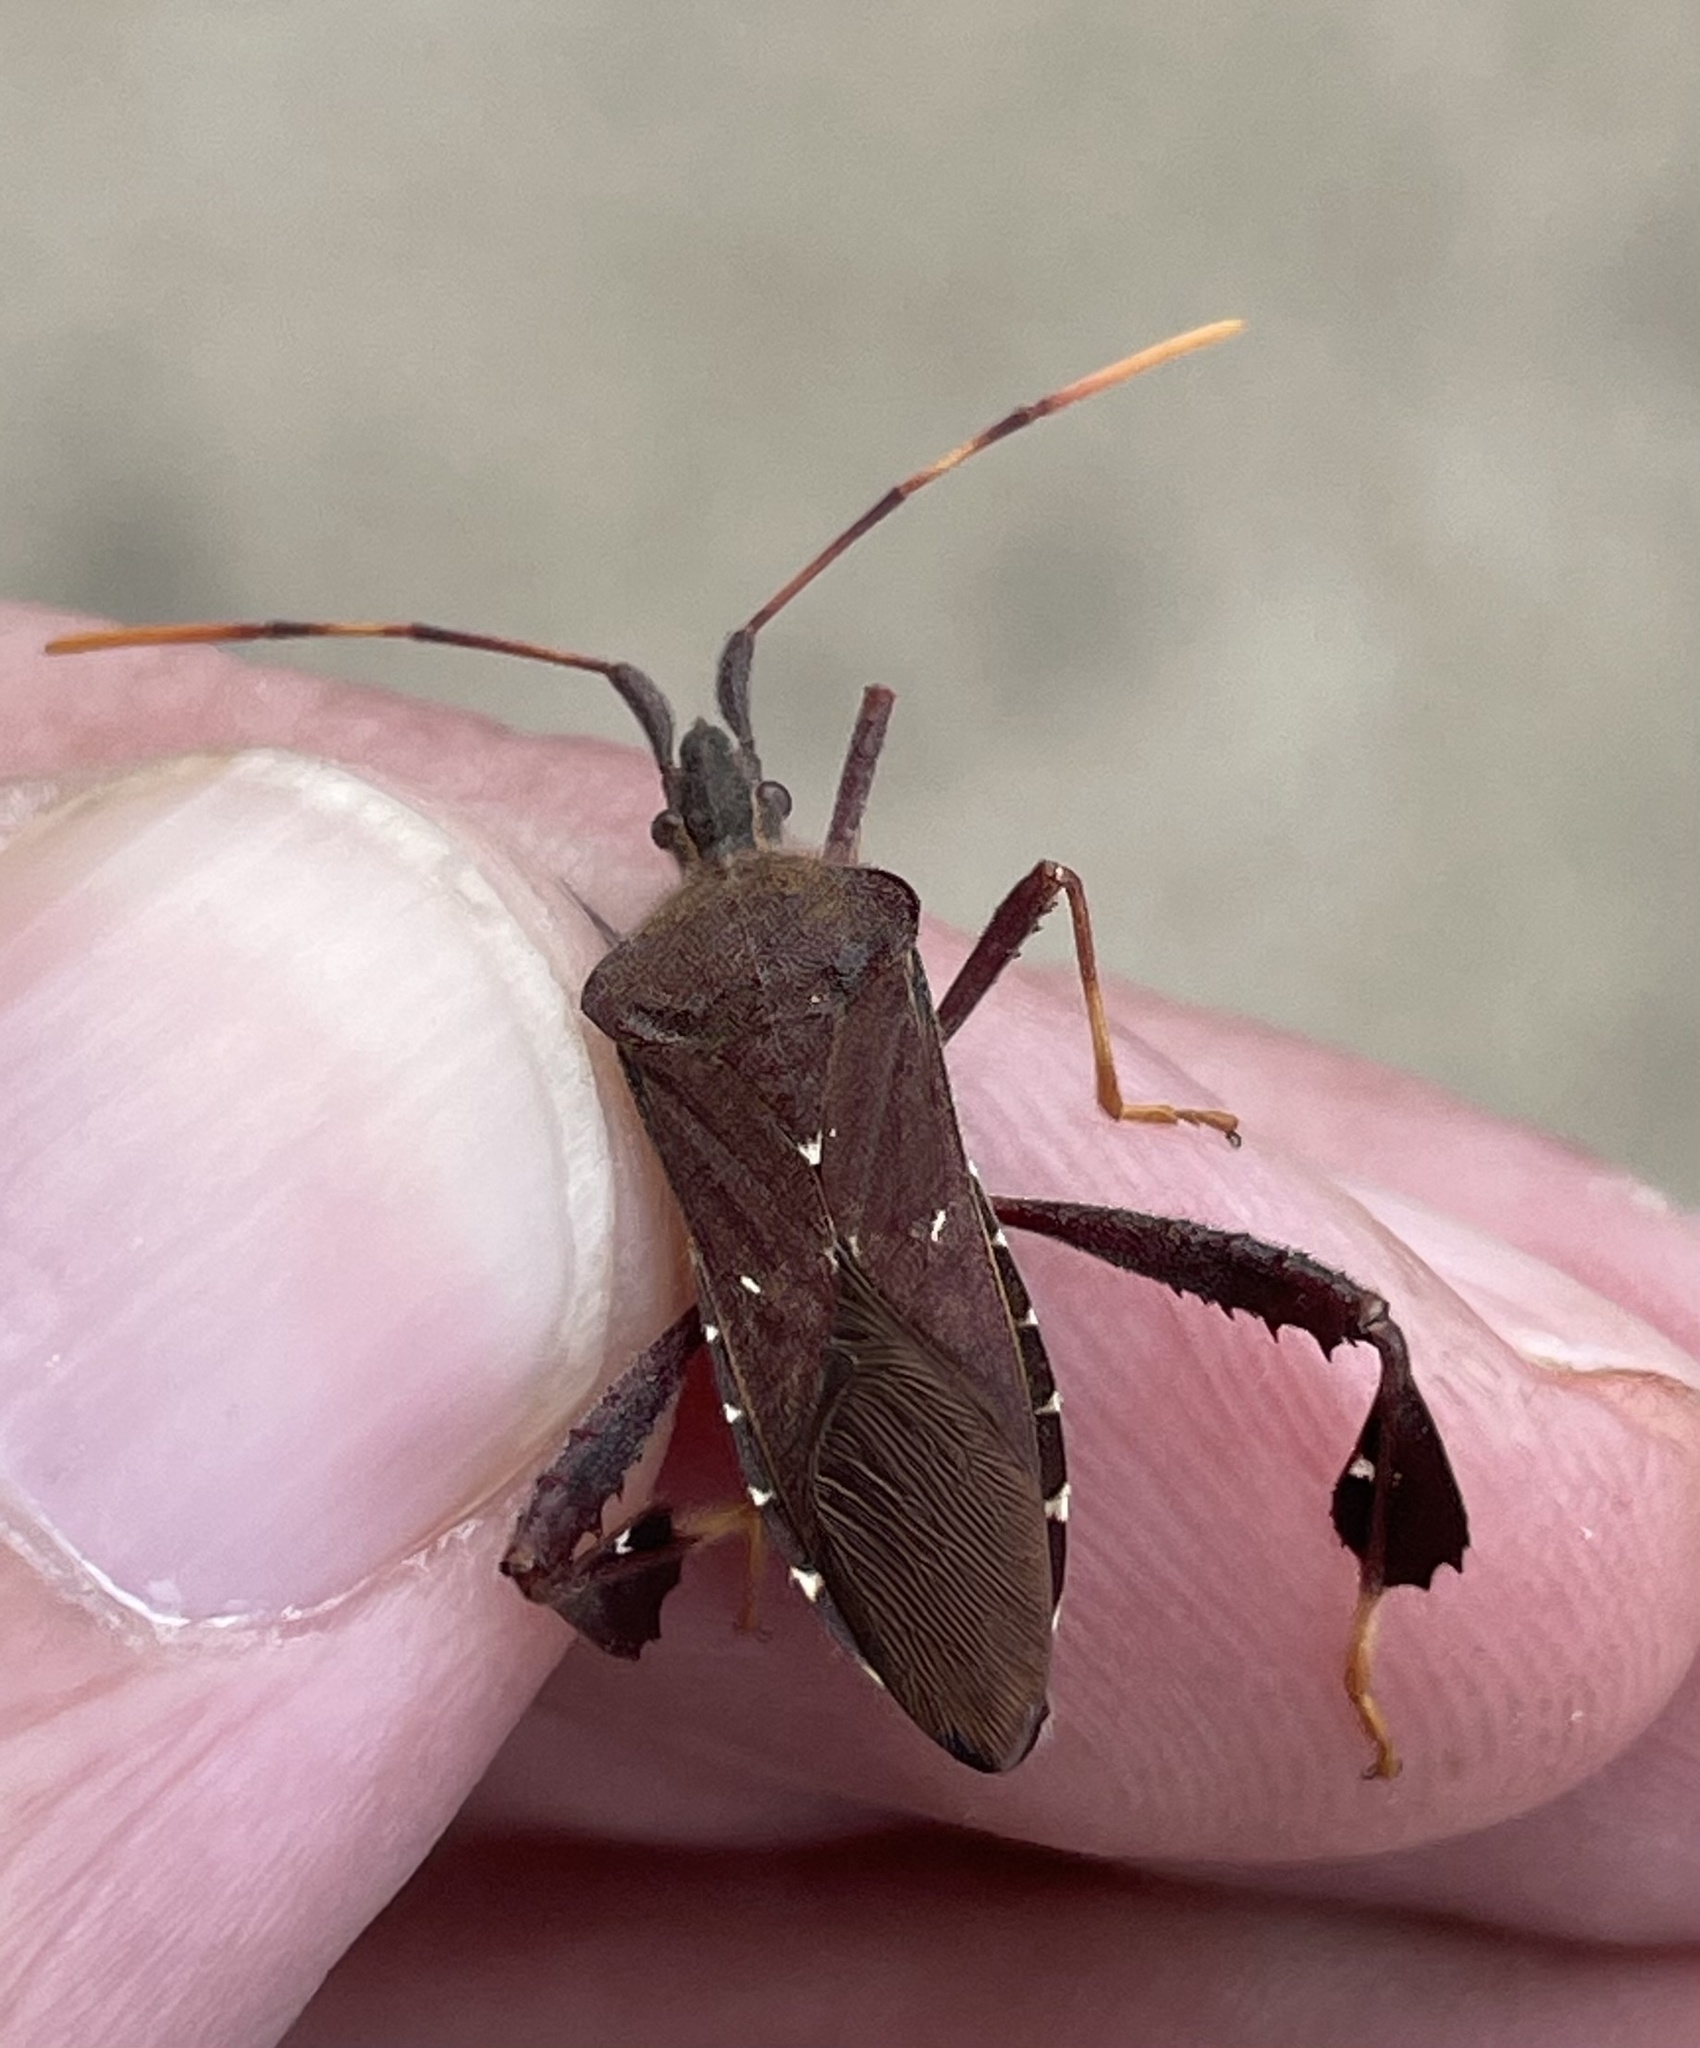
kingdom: Animalia
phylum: Arthropoda
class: Insecta
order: Hemiptera
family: Coreidae
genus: Leptoglossus
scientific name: Leptoglossus oppositus
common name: Northern leaf-footed bug
